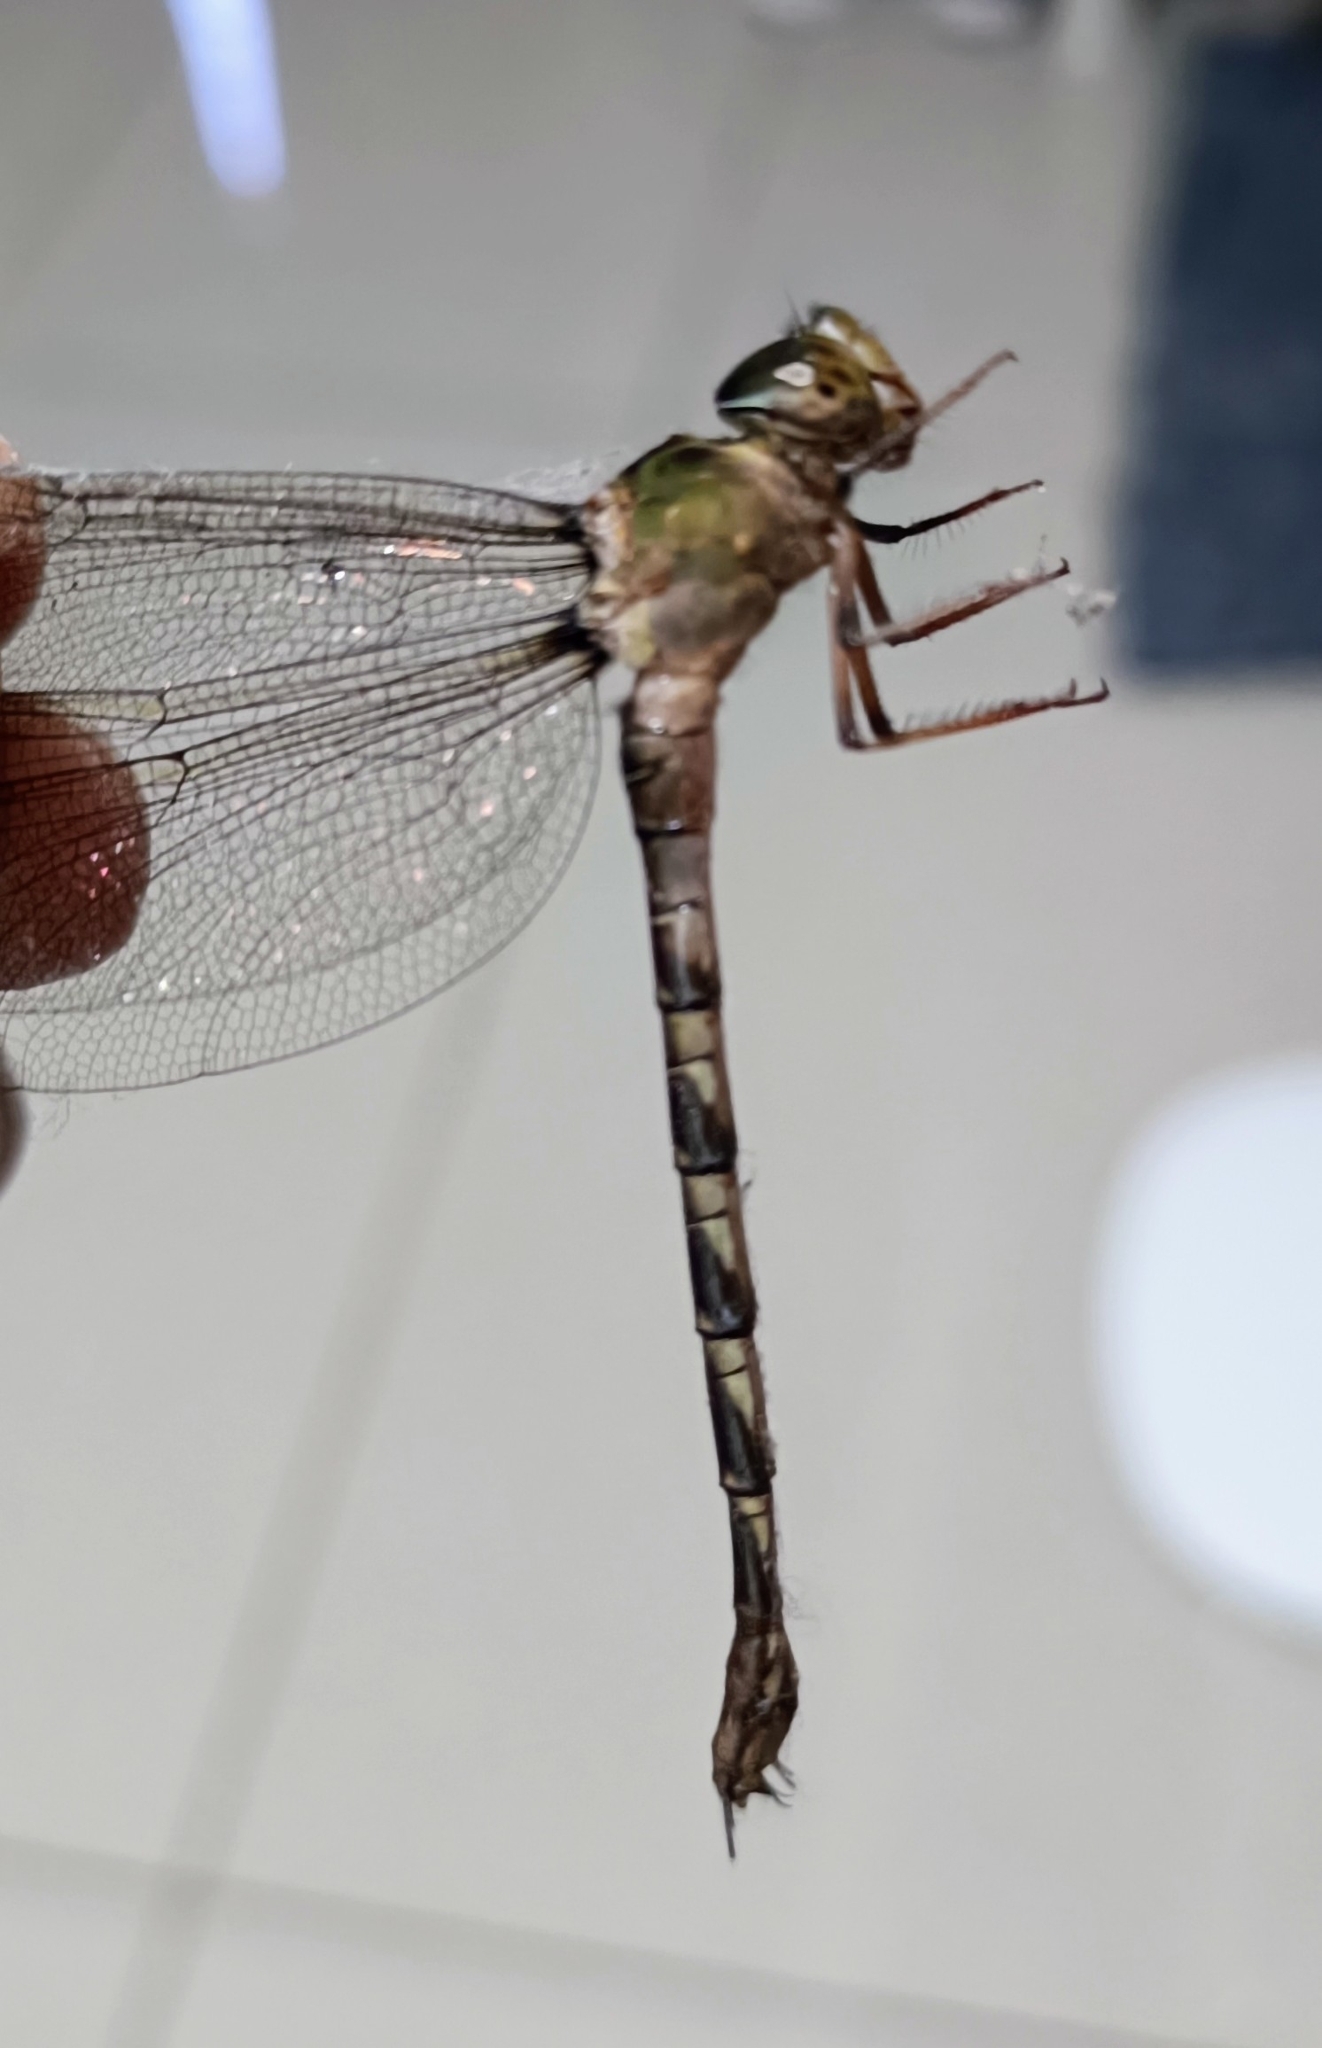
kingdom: Animalia
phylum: Arthropoda
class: Insecta
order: Odonata
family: Aeshnidae
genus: Gynacantha
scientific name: Gynacantha dravida
